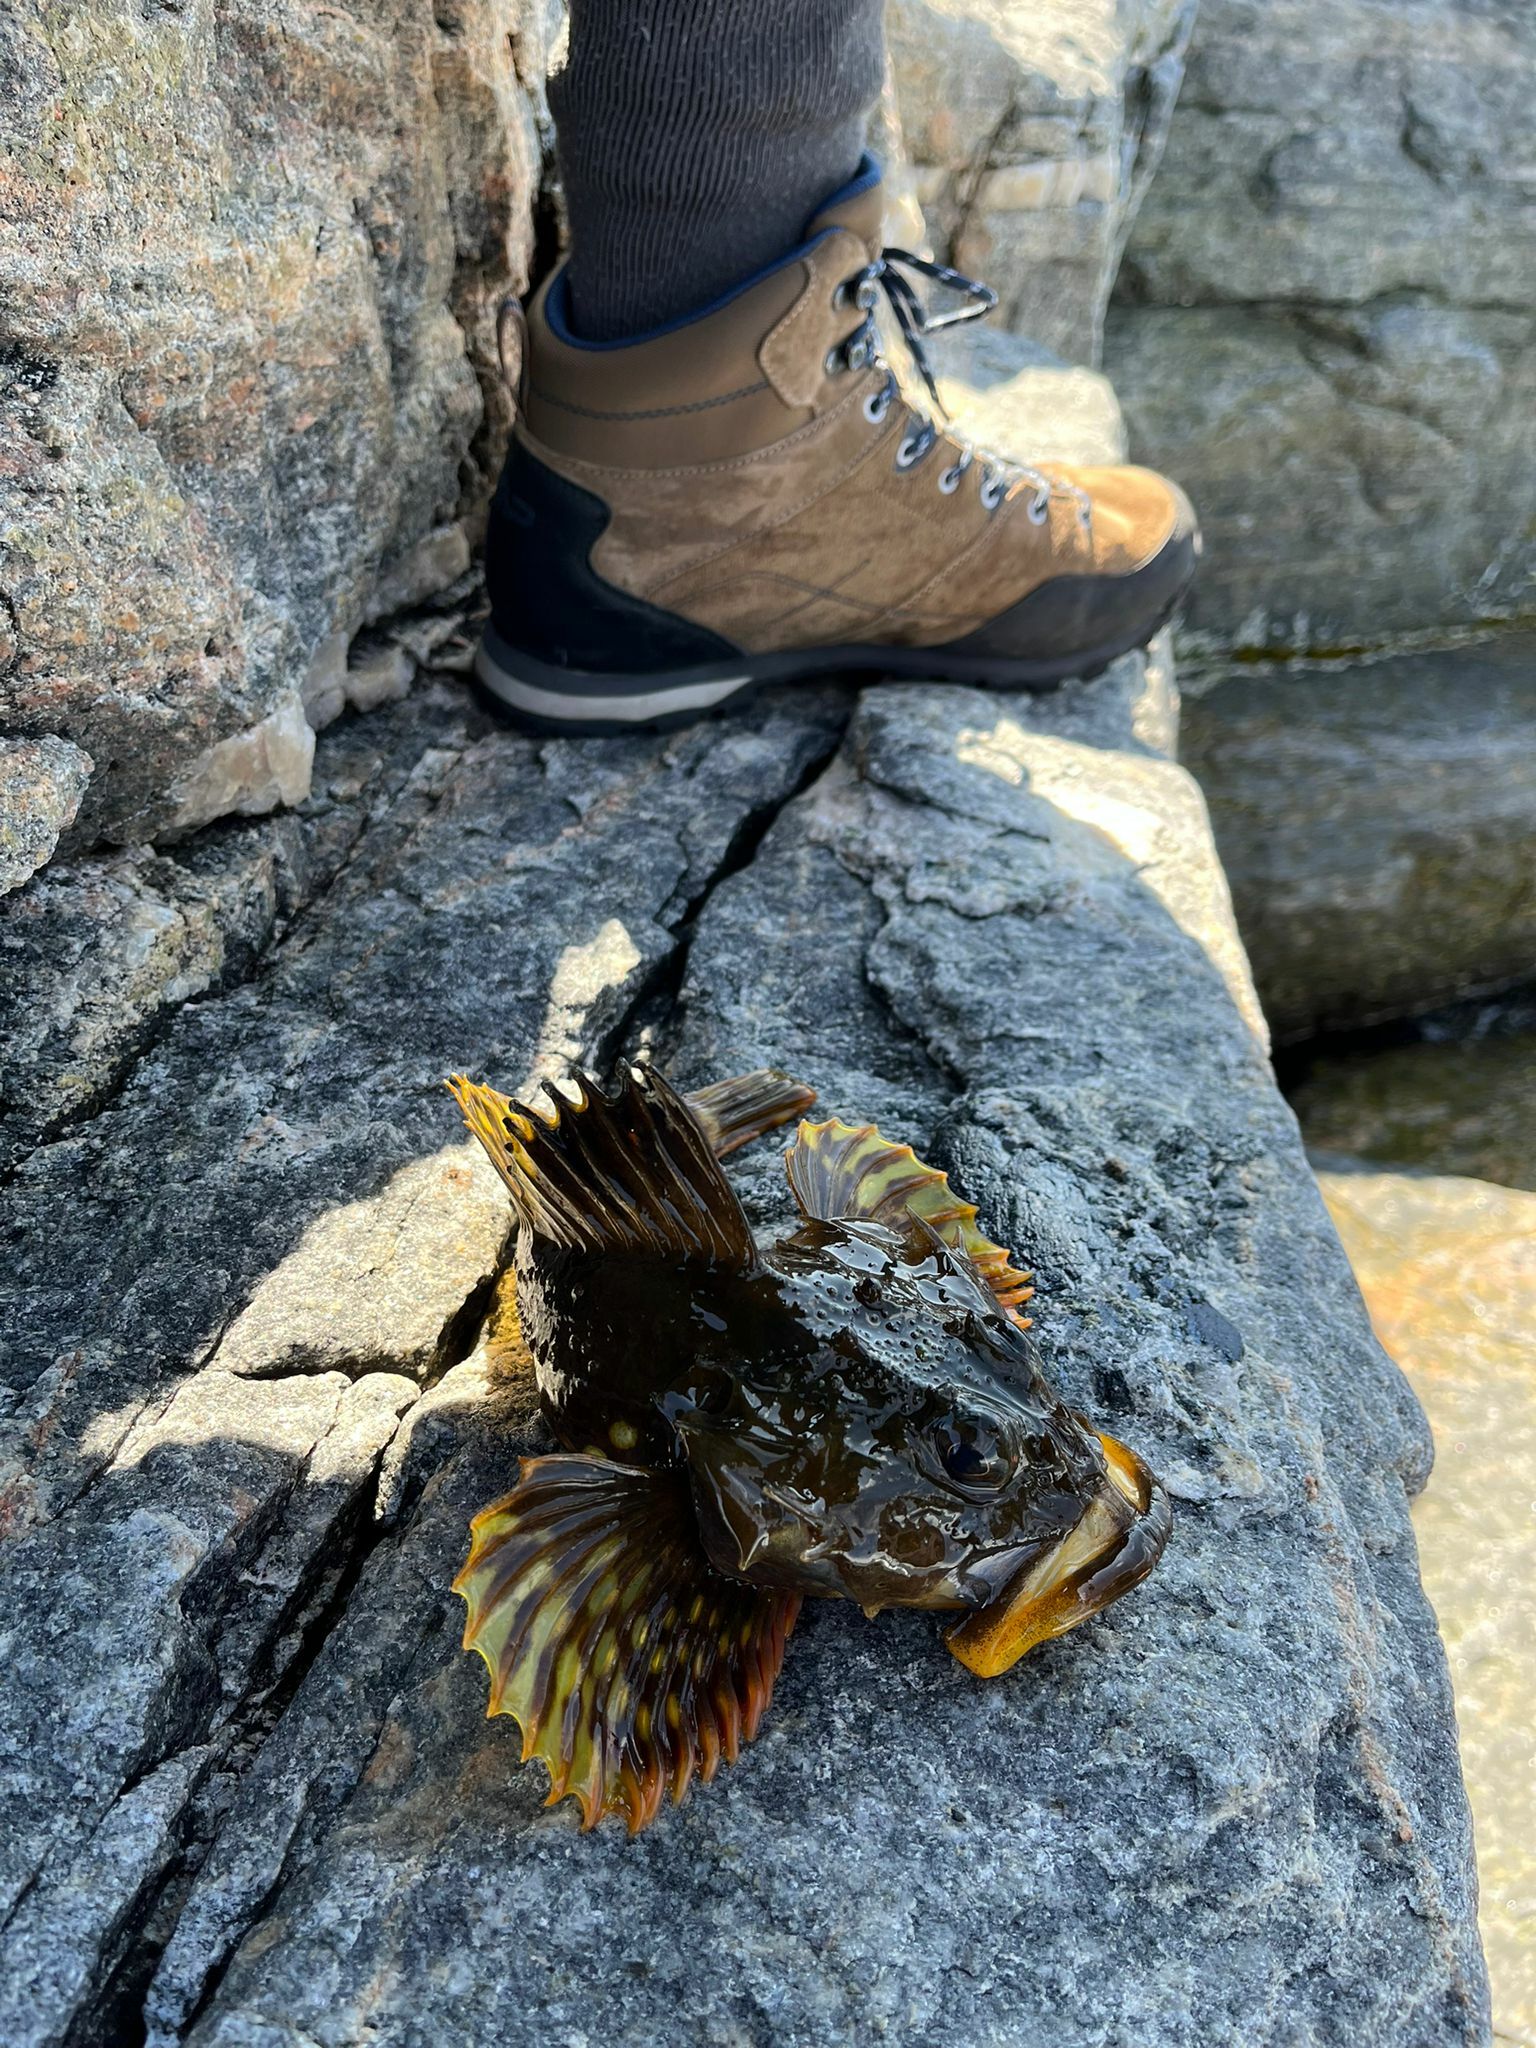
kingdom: Animalia
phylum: Chordata
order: Scorpaeniformes
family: Cottidae
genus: Myoxocephalus
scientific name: Myoxocephalus scorpius
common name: Shorthorn sculpin
